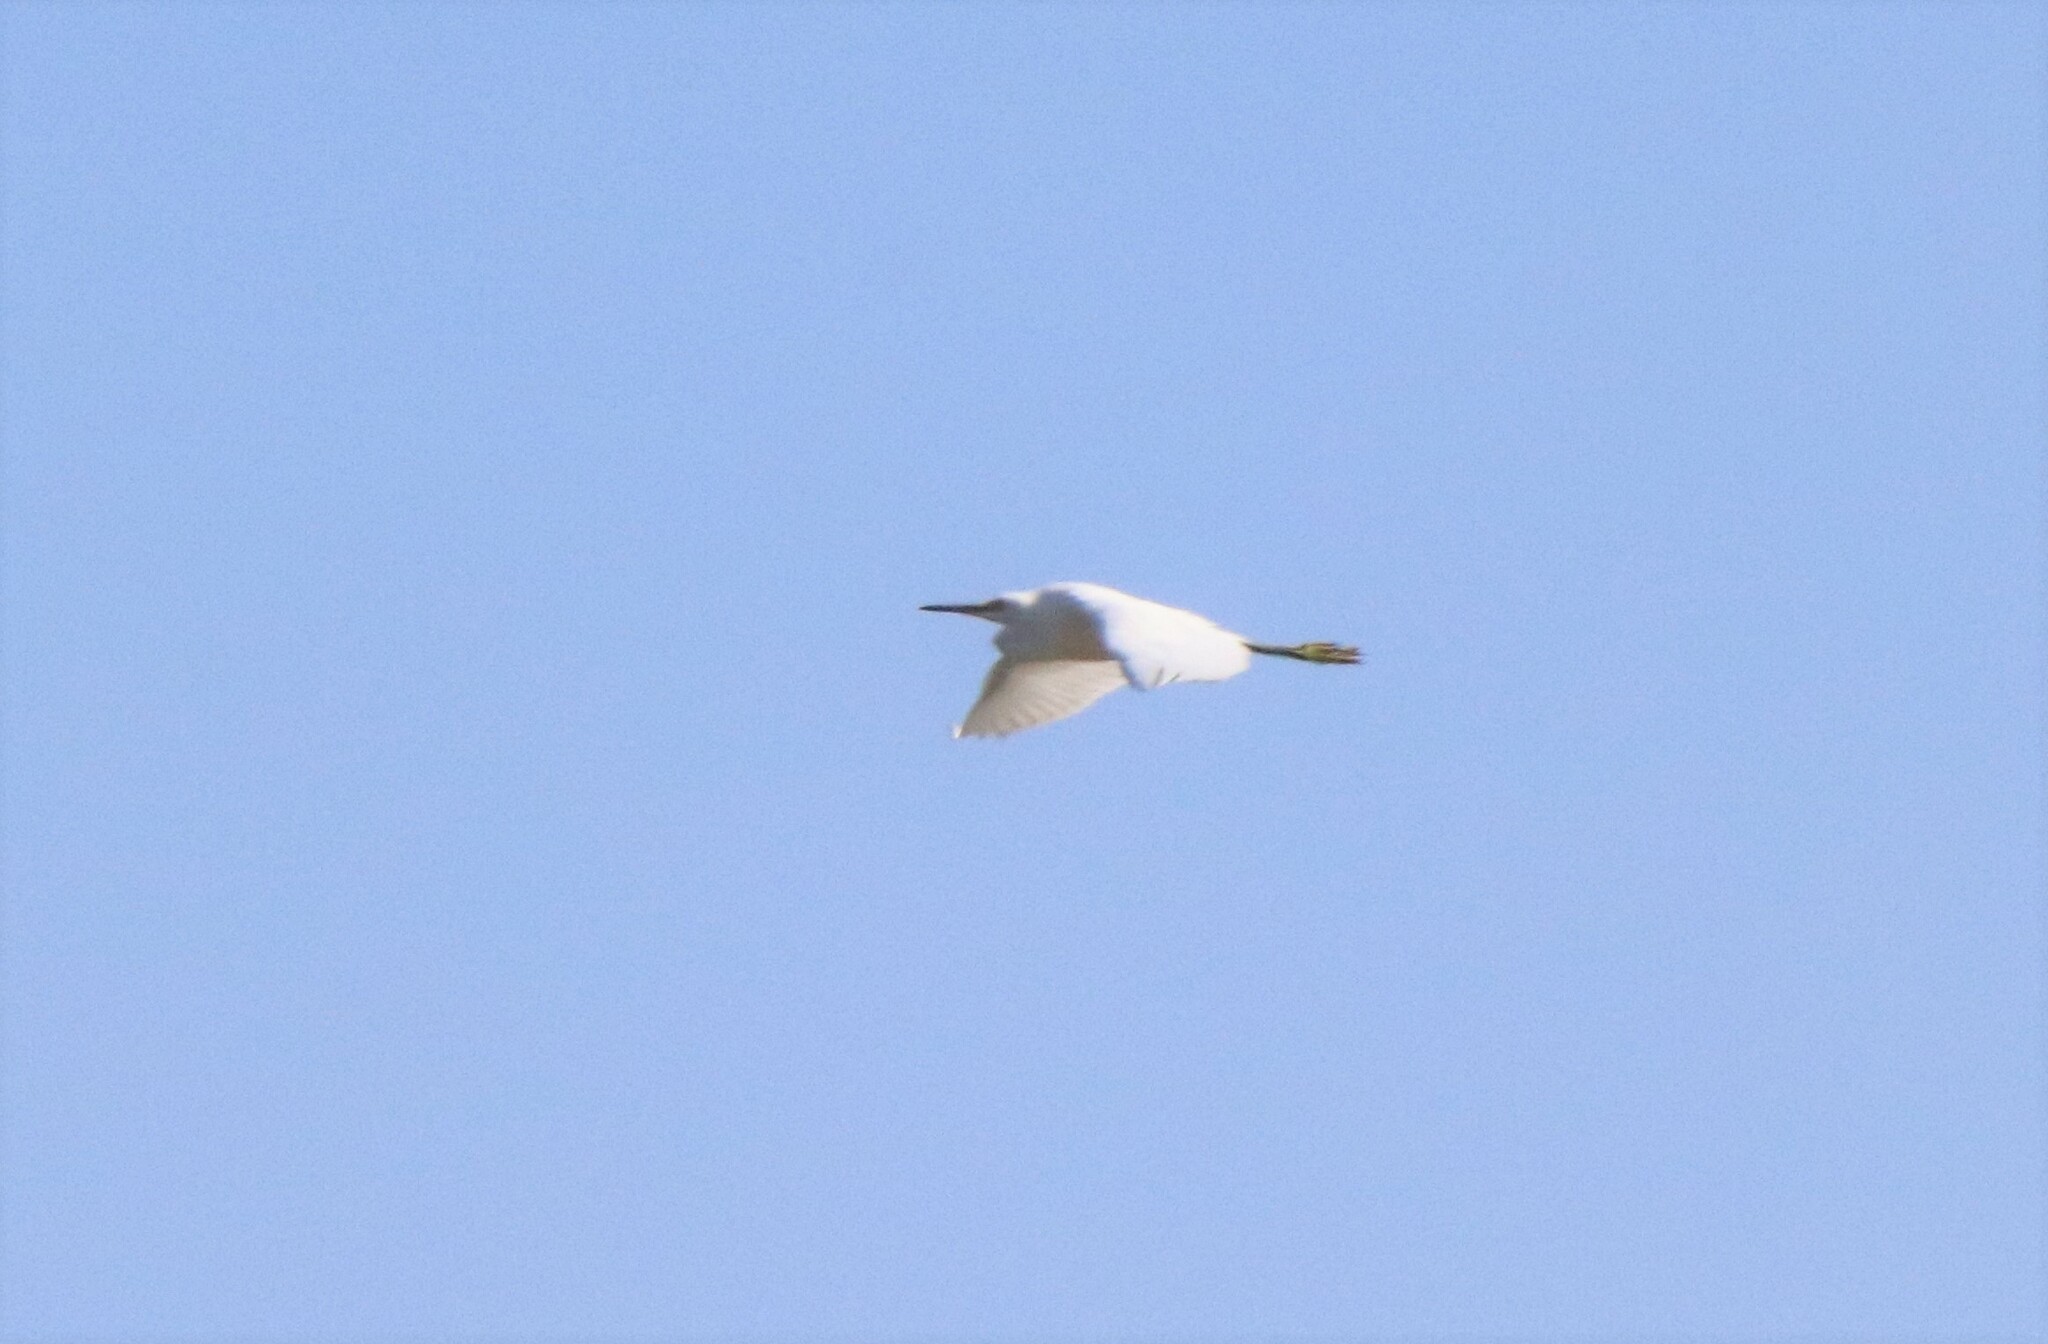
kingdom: Animalia
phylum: Chordata
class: Aves
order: Pelecaniformes
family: Ardeidae
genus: Egretta
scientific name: Egretta thula
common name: Snowy egret
